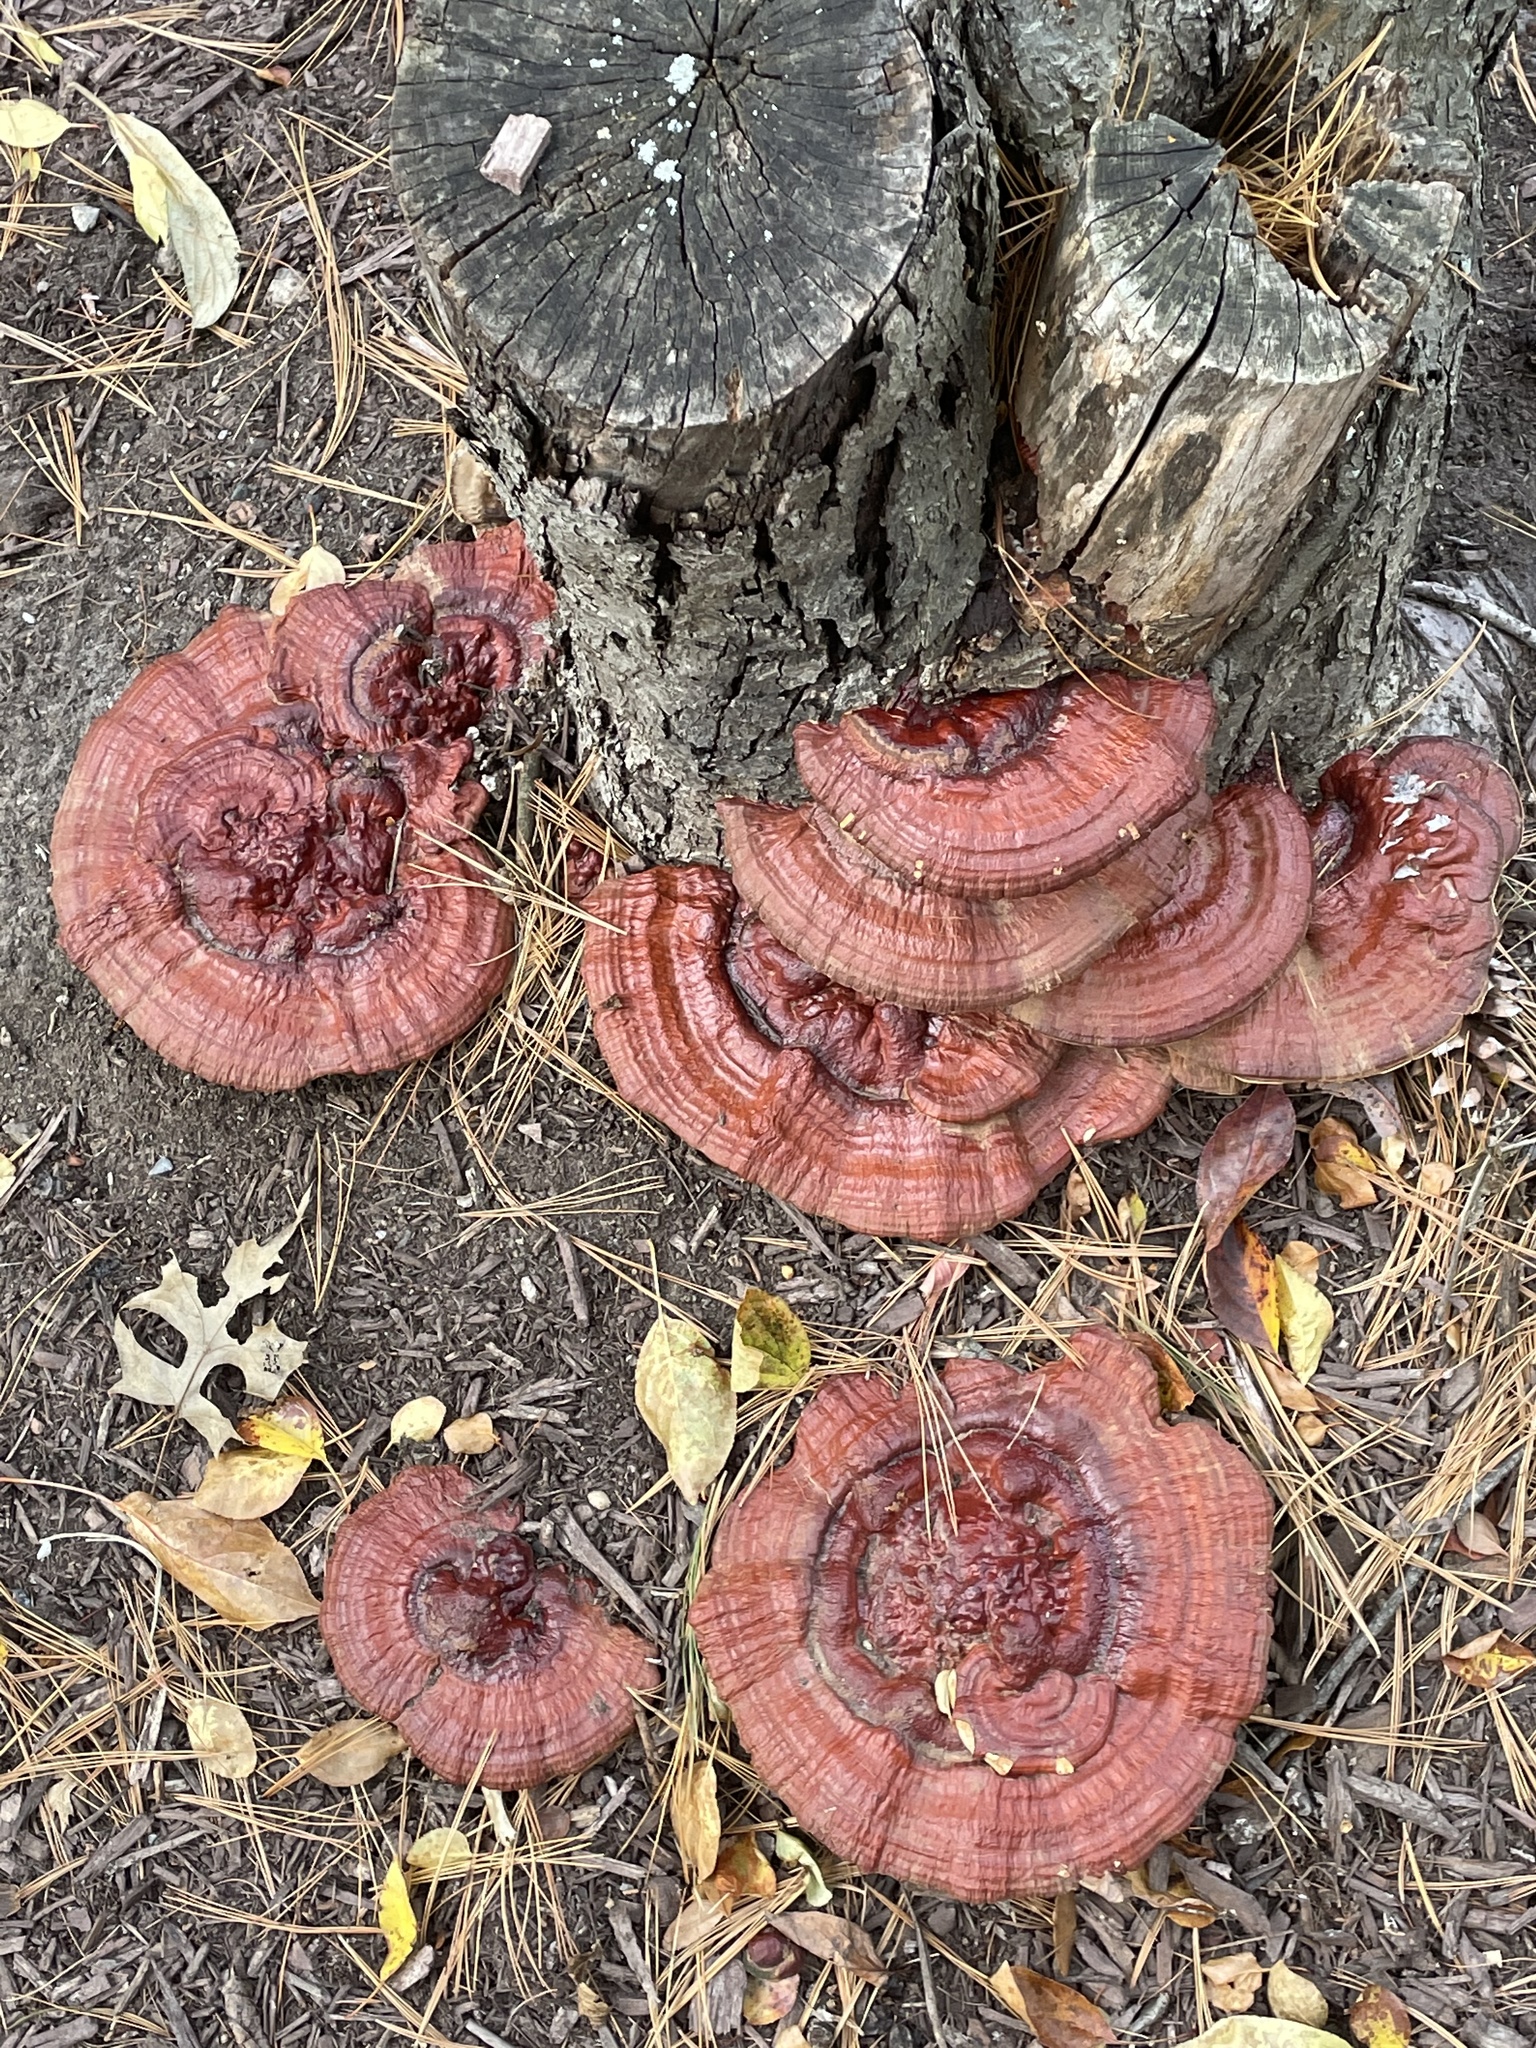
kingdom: Fungi
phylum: Basidiomycota
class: Agaricomycetes
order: Polyporales
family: Polyporaceae
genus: Ganoderma
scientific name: Ganoderma resinaceum
